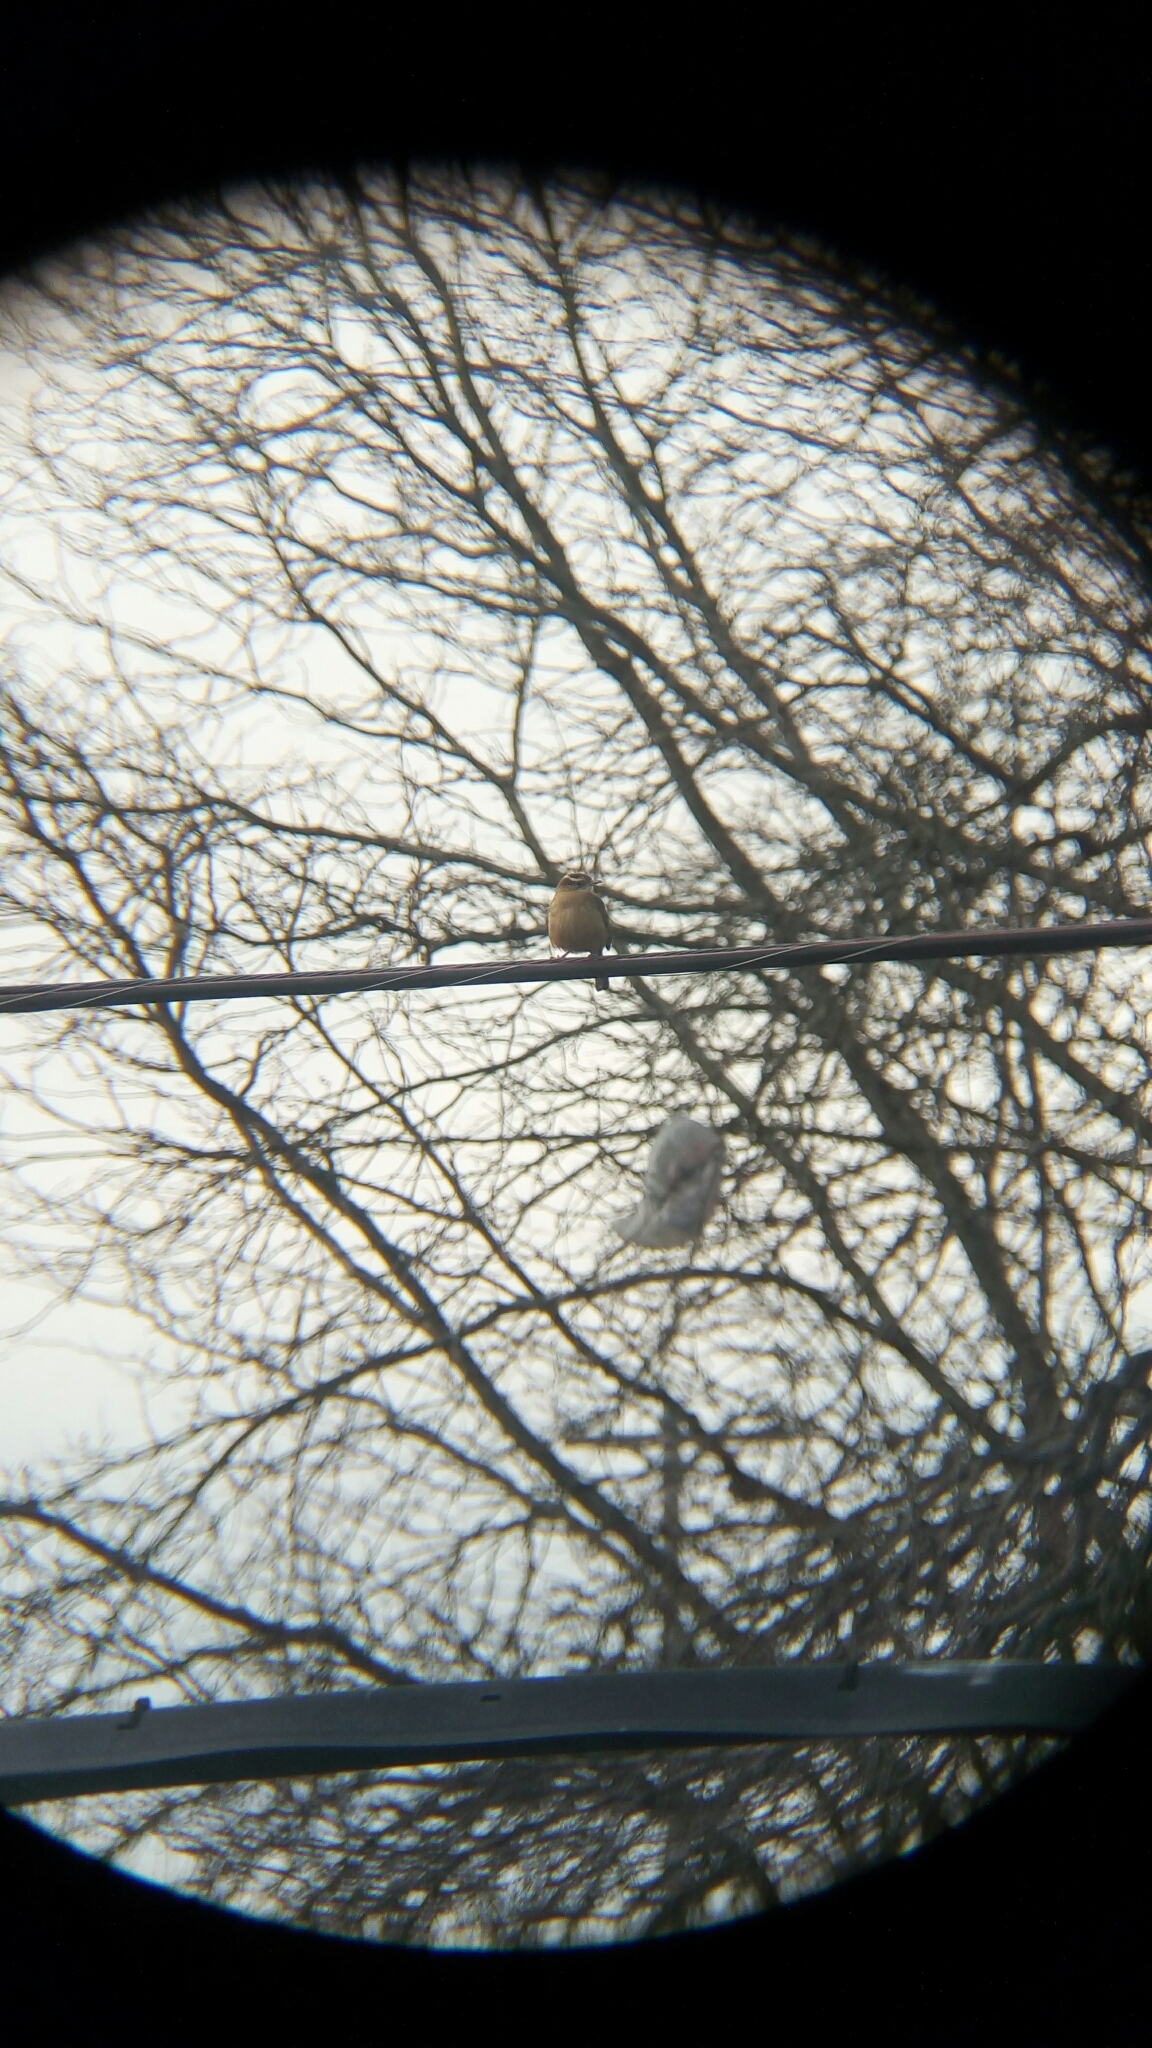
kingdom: Animalia
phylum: Chordata
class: Aves
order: Passeriformes
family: Troglodytidae
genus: Thryothorus
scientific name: Thryothorus ludovicianus
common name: Carolina wren
